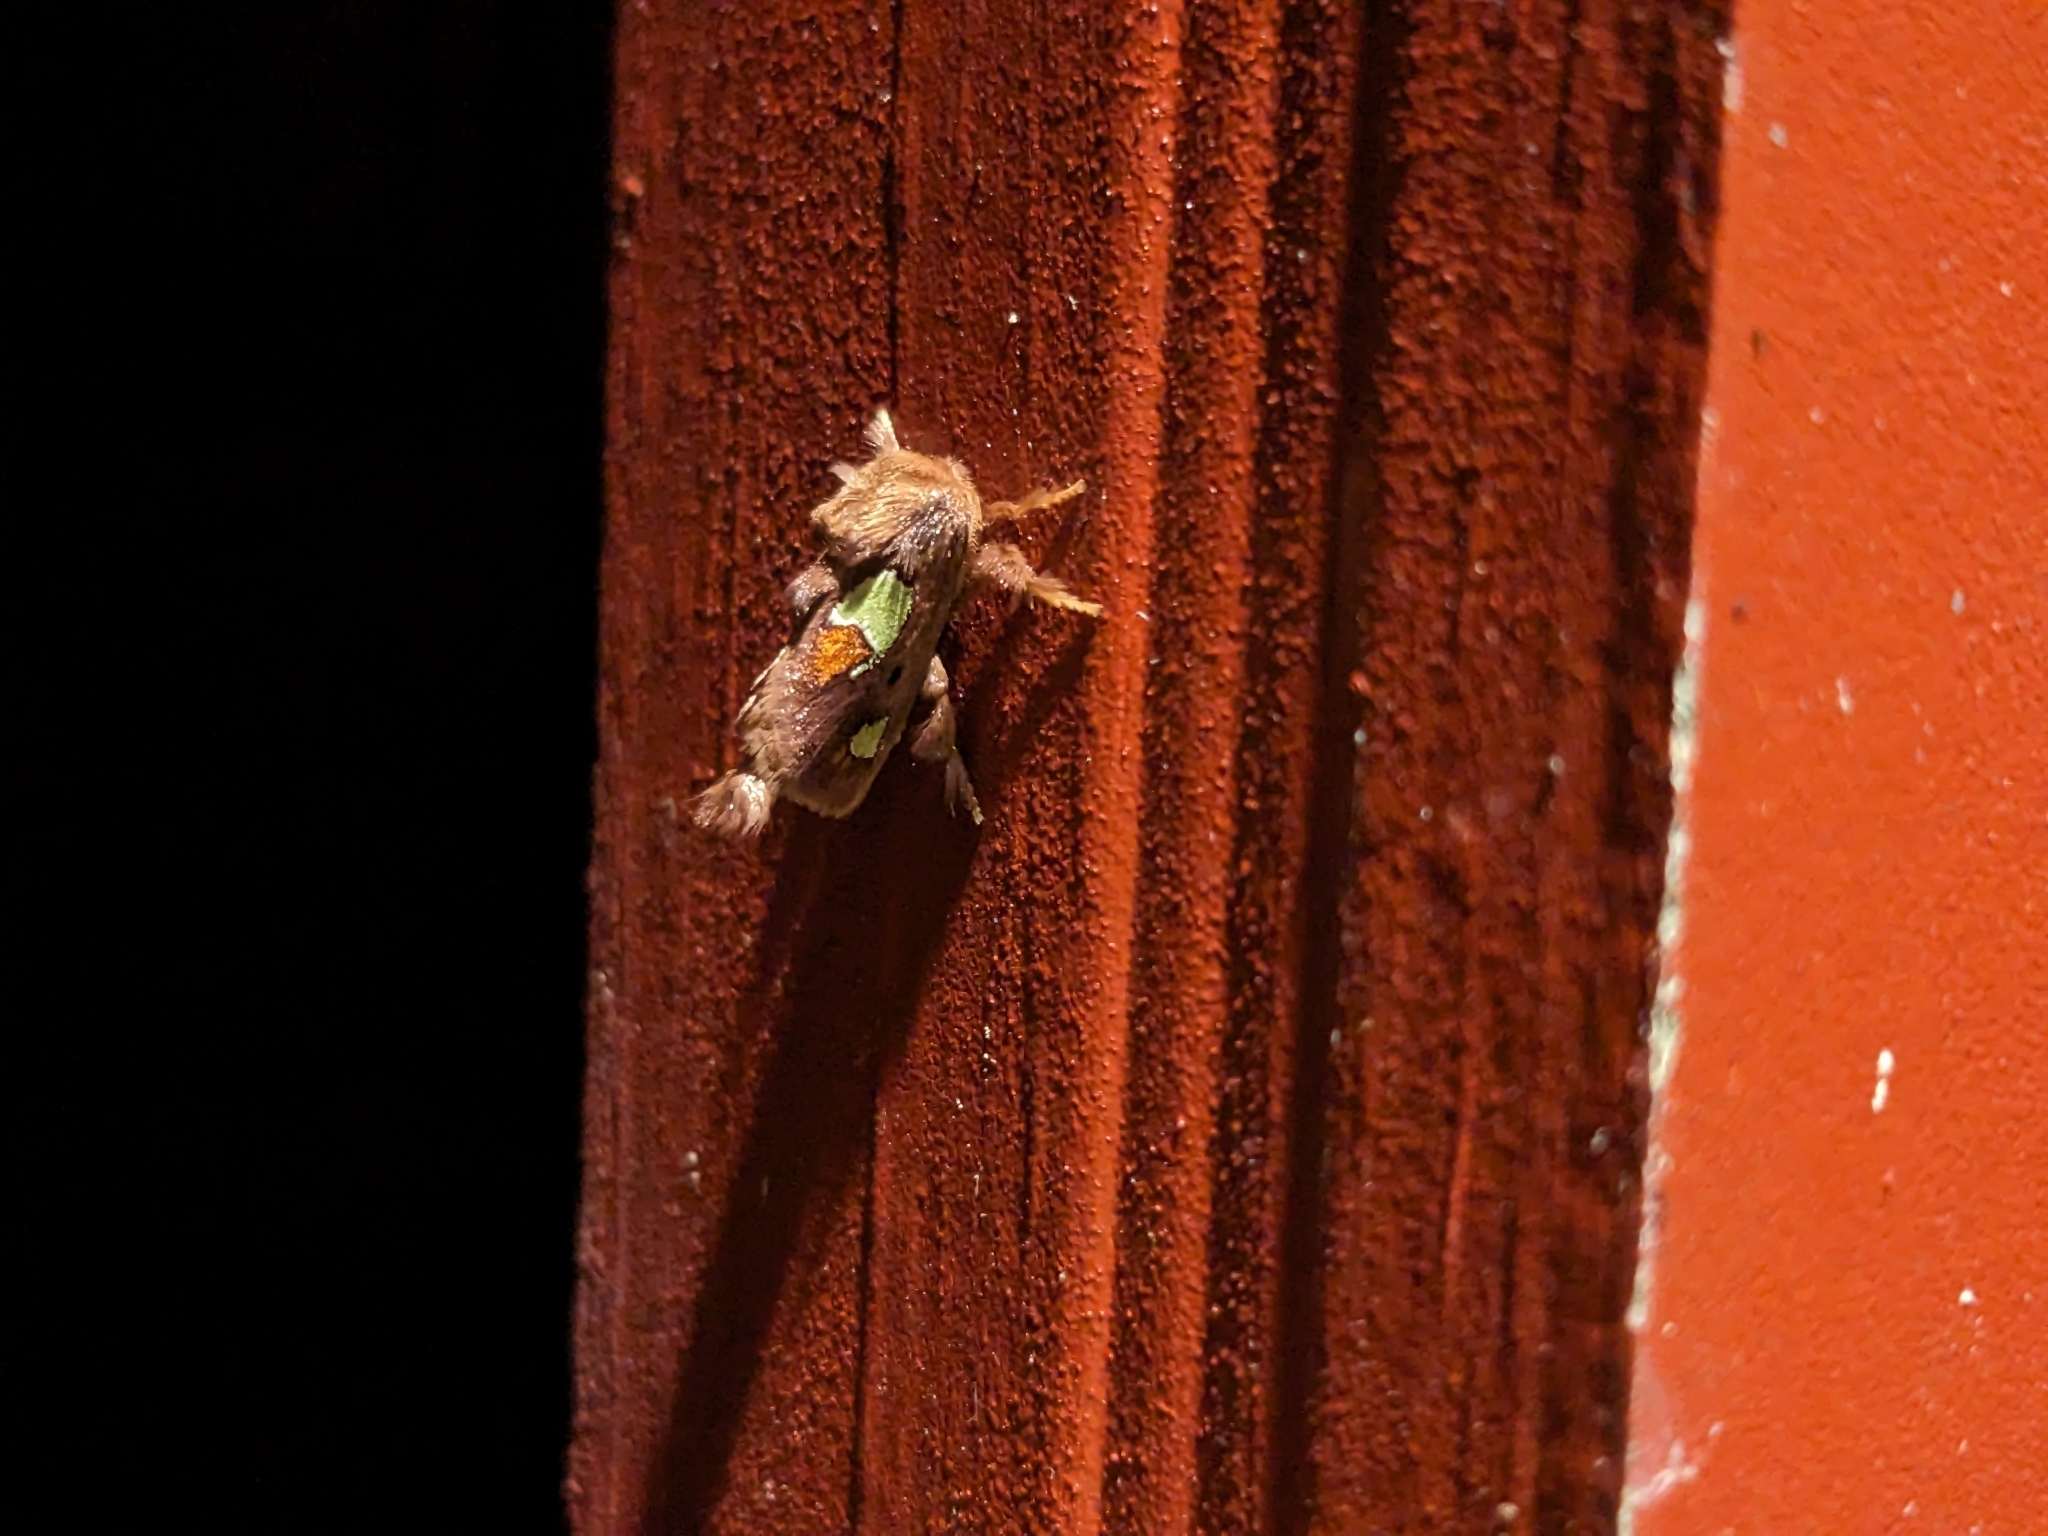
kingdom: Animalia
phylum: Arthropoda
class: Insecta
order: Lepidoptera
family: Limacodidae
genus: Euclea
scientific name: Euclea delphinii
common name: Spiny oak-slug moth
